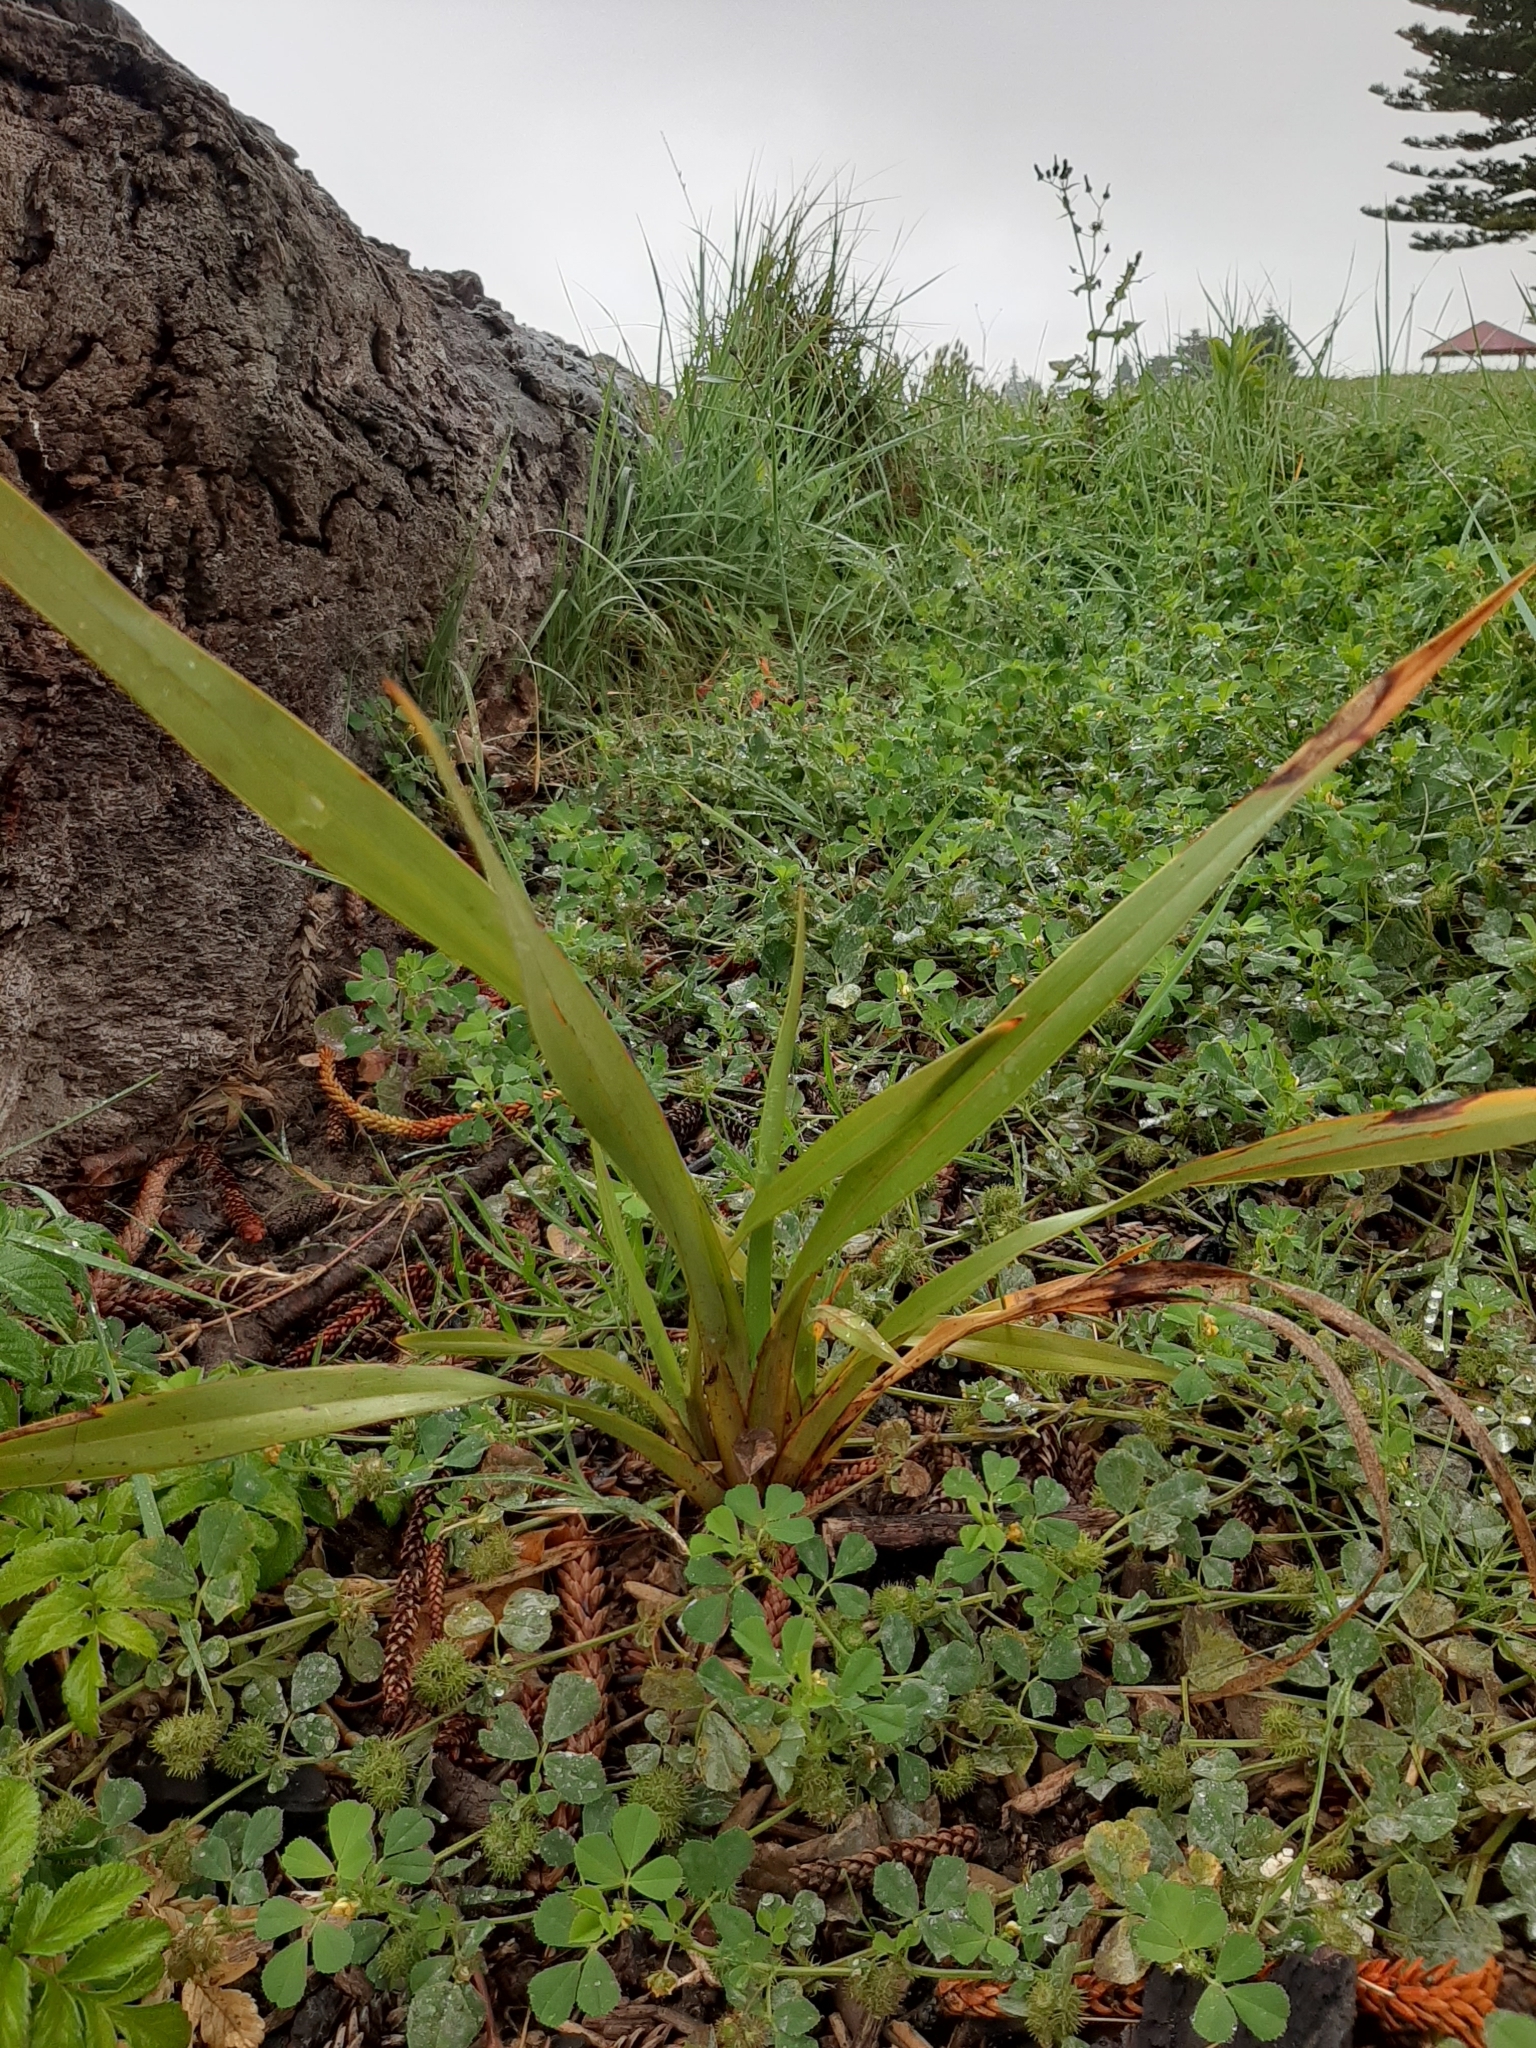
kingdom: Plantae
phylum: Tracheophyta
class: Liliopsida
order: Asparagales
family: Asphodelaceae
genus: Phormium
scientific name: Phormium colensoi
